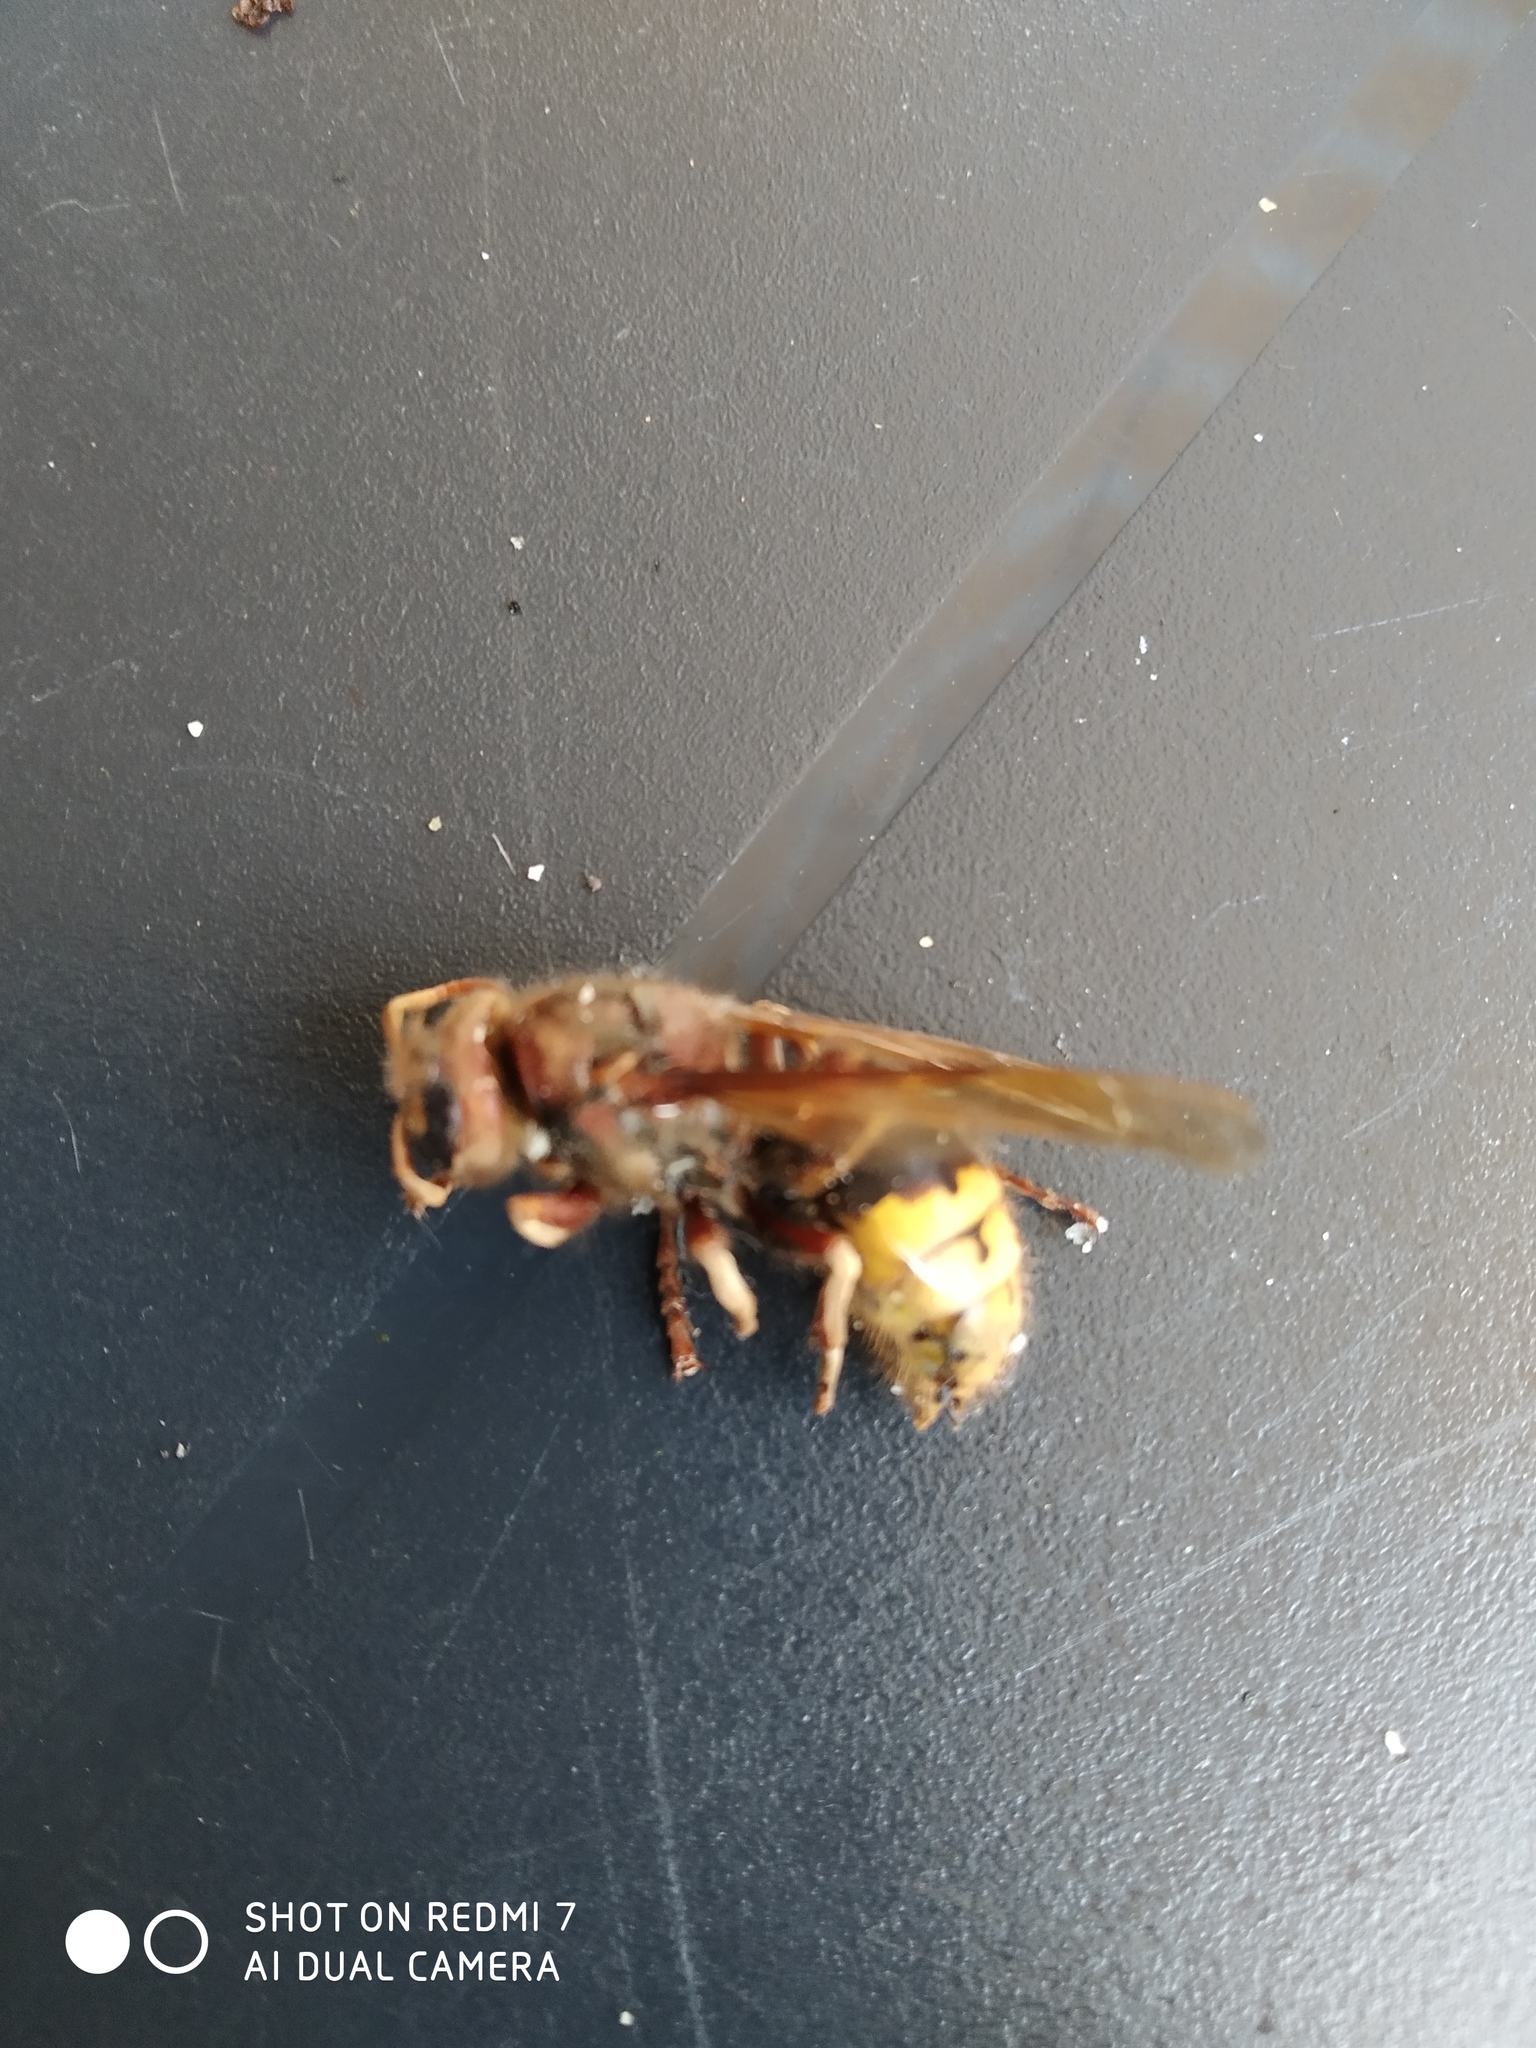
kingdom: Animalia
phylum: Arthropoda
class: Insecta
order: Hymenoptera
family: Vespidae
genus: Vespa
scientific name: Vespa crabro
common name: Hornet
